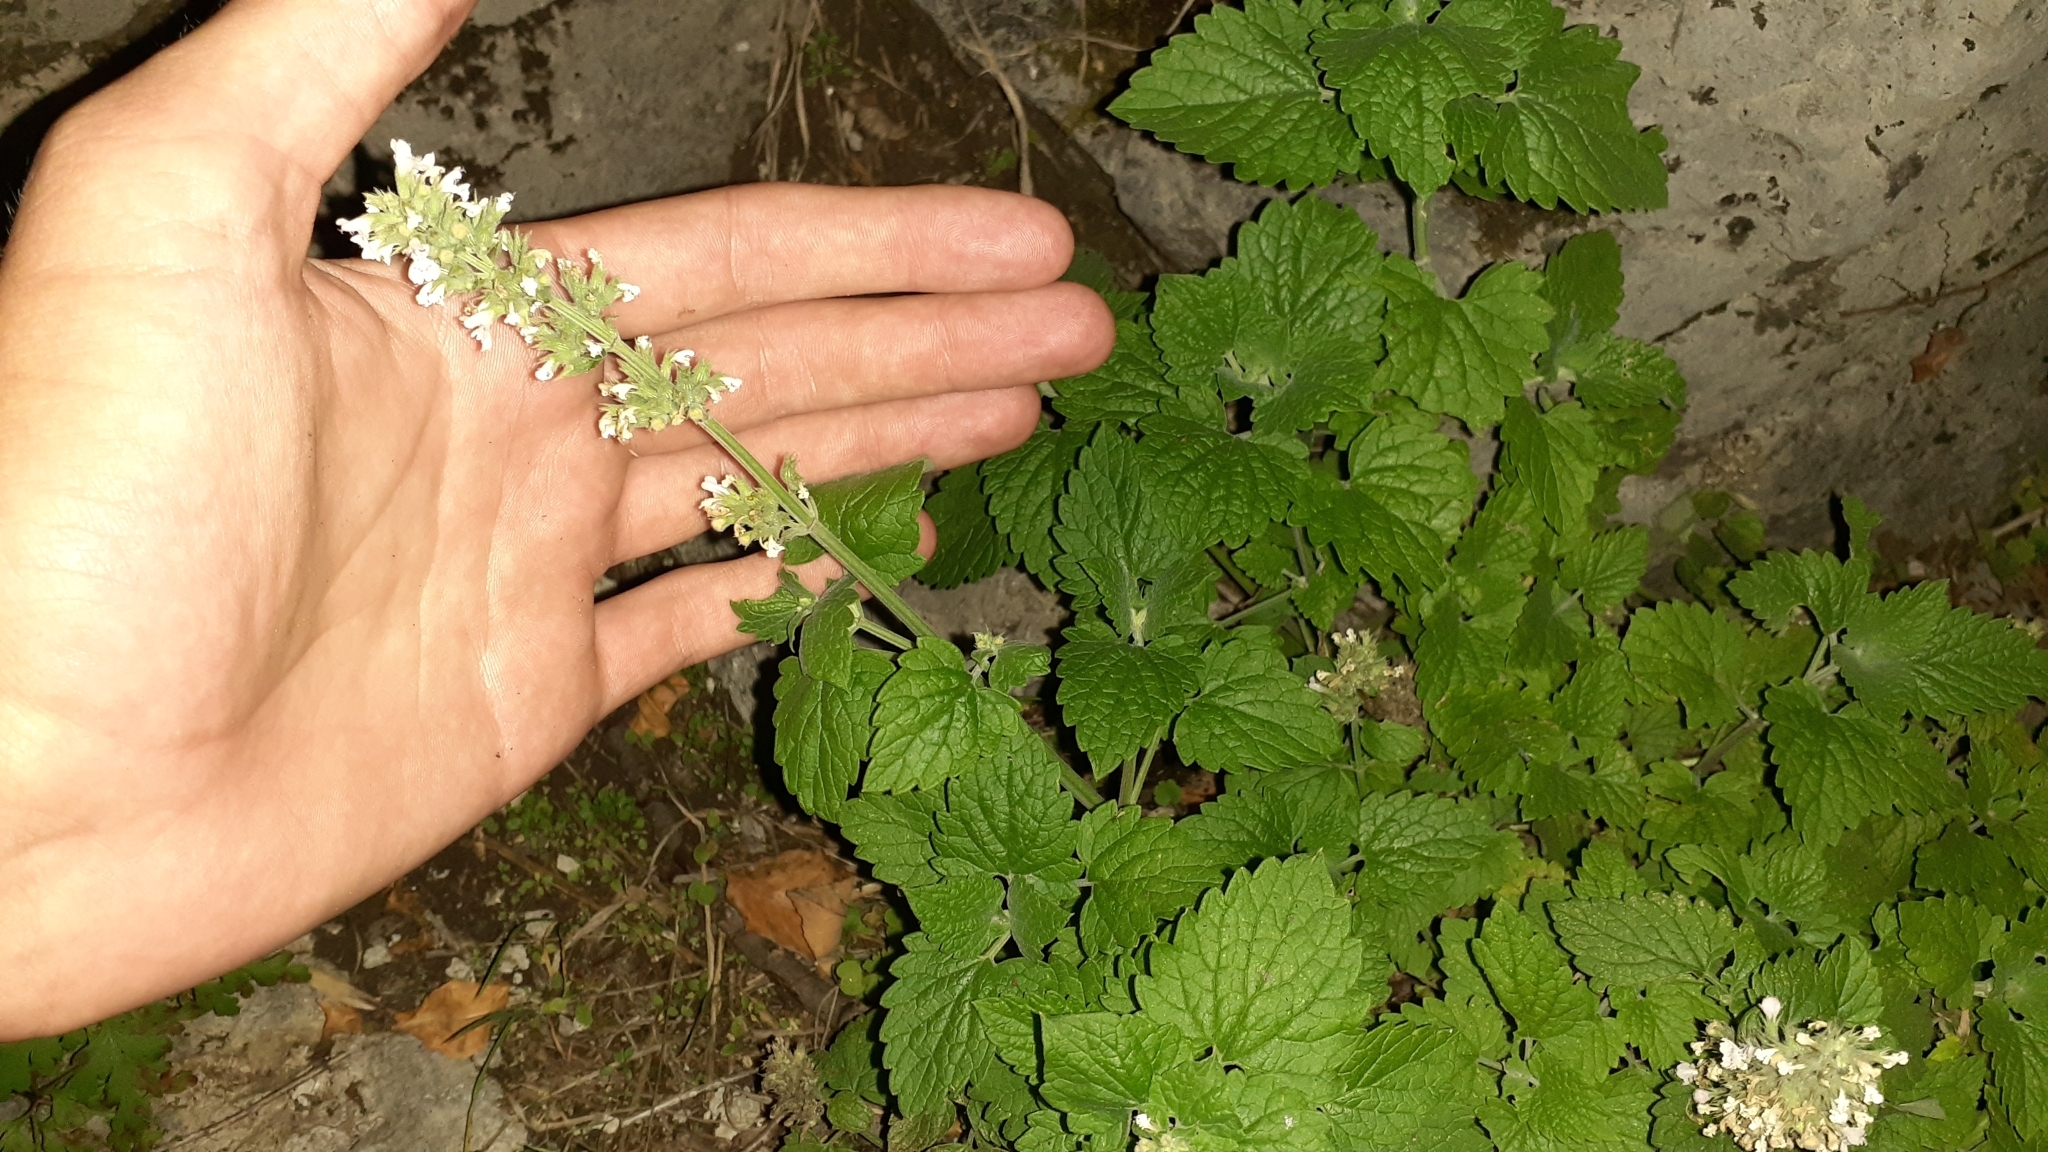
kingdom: Plantae
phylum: Tracheophyta
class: Magnoliopsida
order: Lamiales
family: Lamiaceae
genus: Nepeta
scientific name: Nepeta cataria
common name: Catnip
